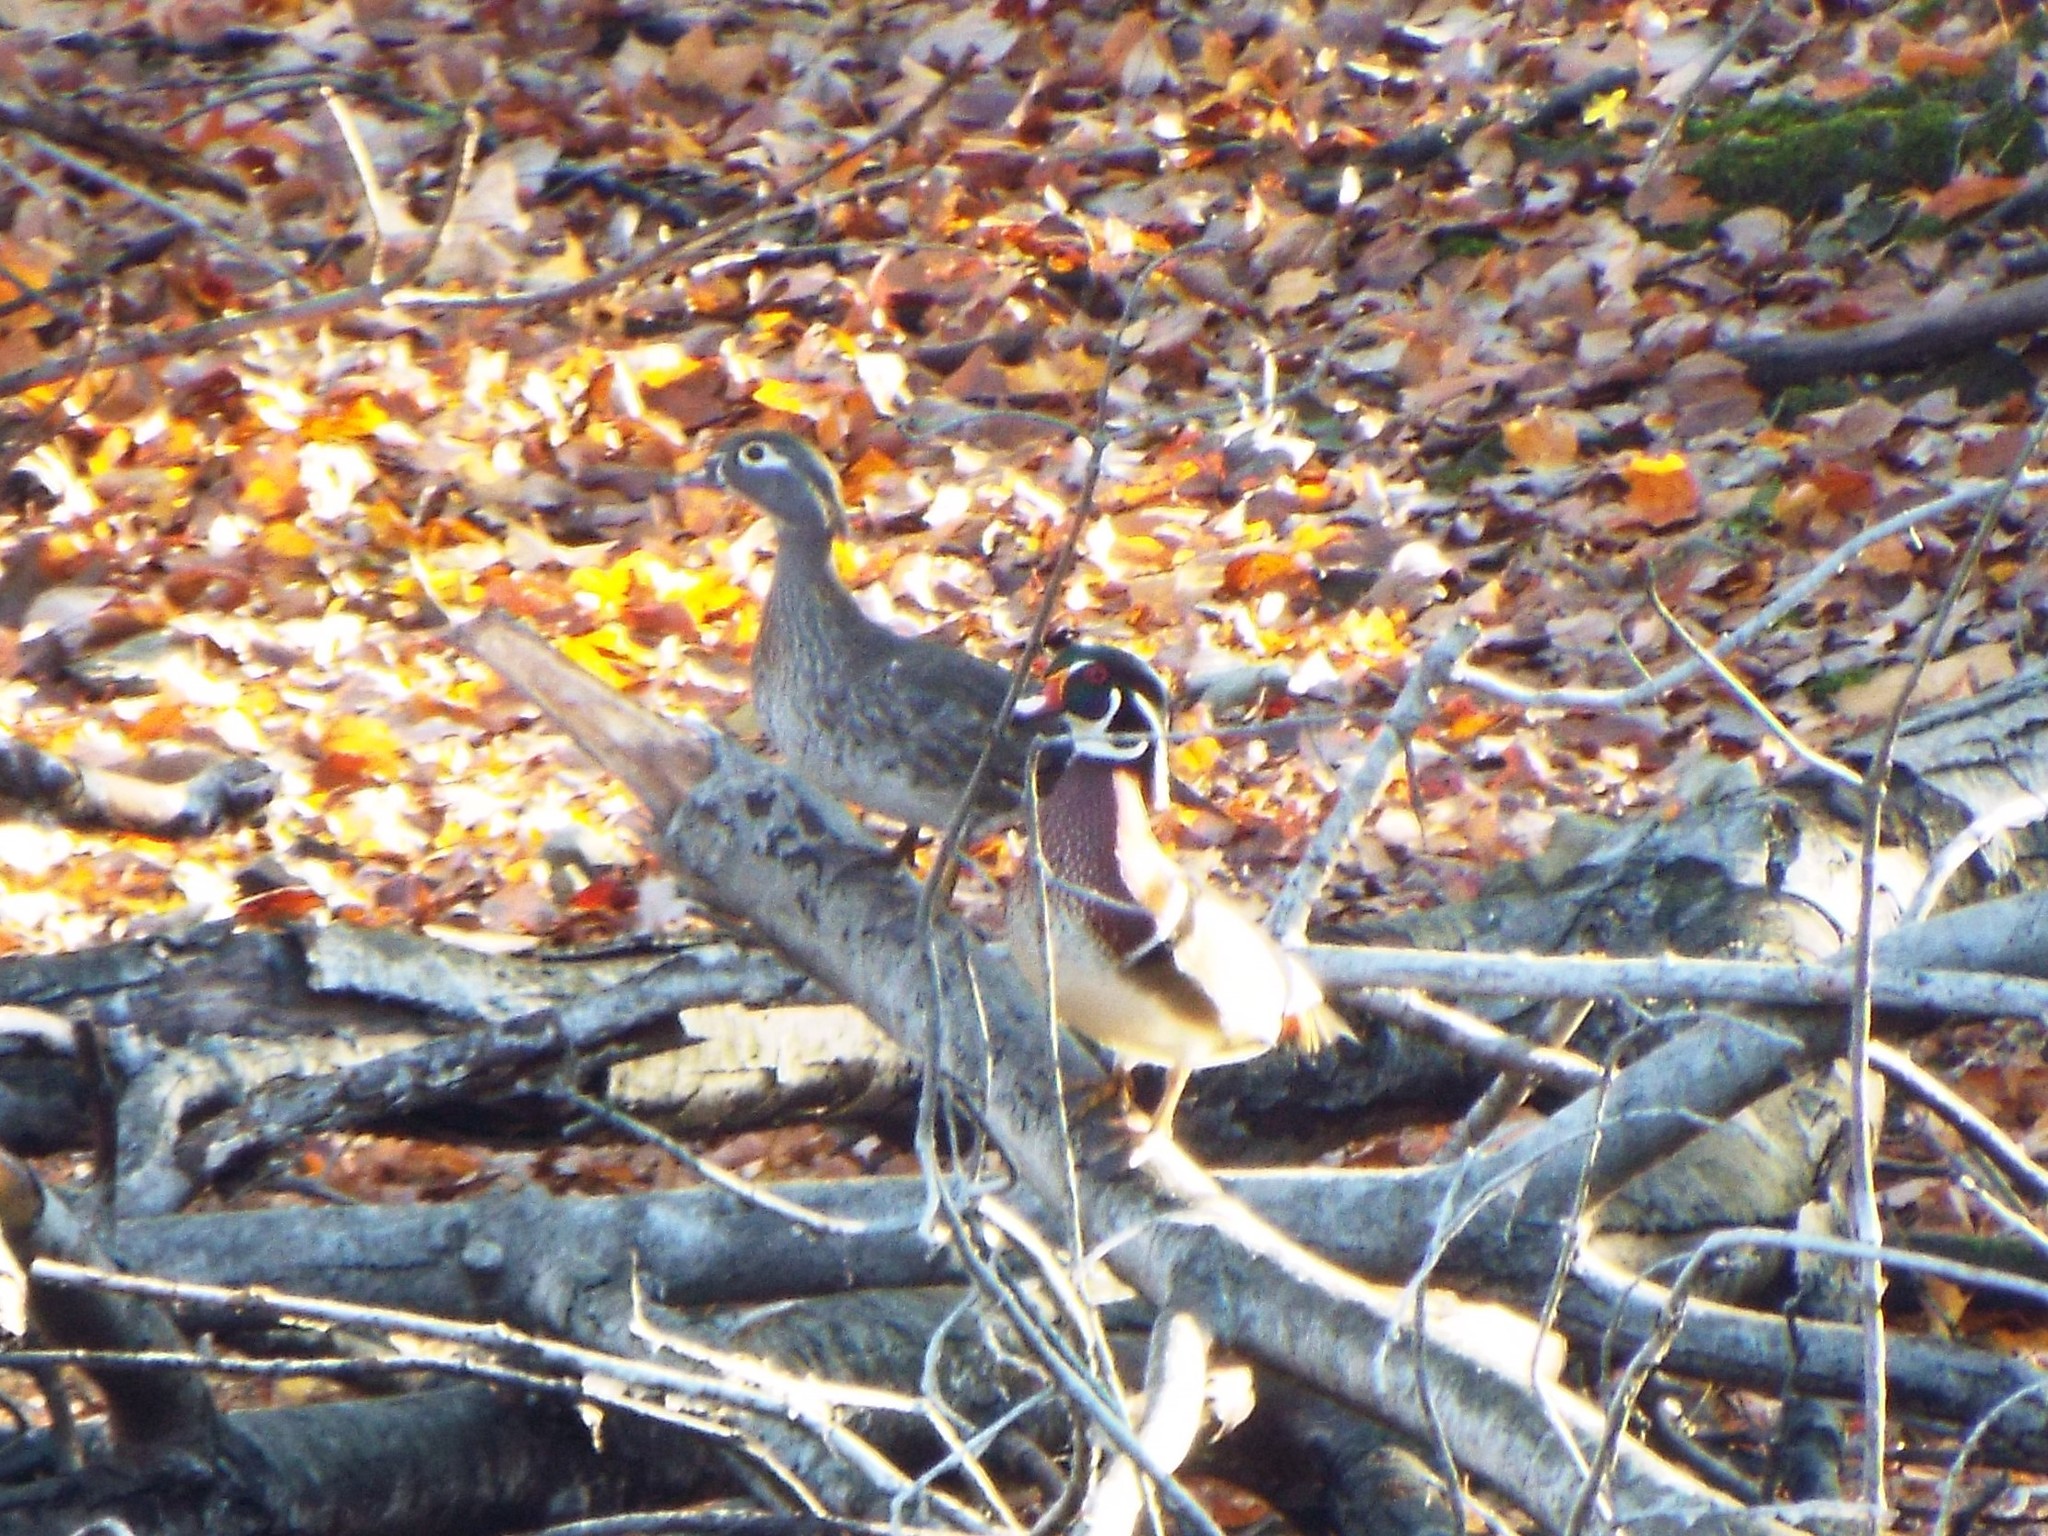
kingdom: Animalia
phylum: Chordata
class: Aves
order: Anseriformes
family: Anatidae
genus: Aix
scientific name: Aix sponsa
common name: Wood duck
